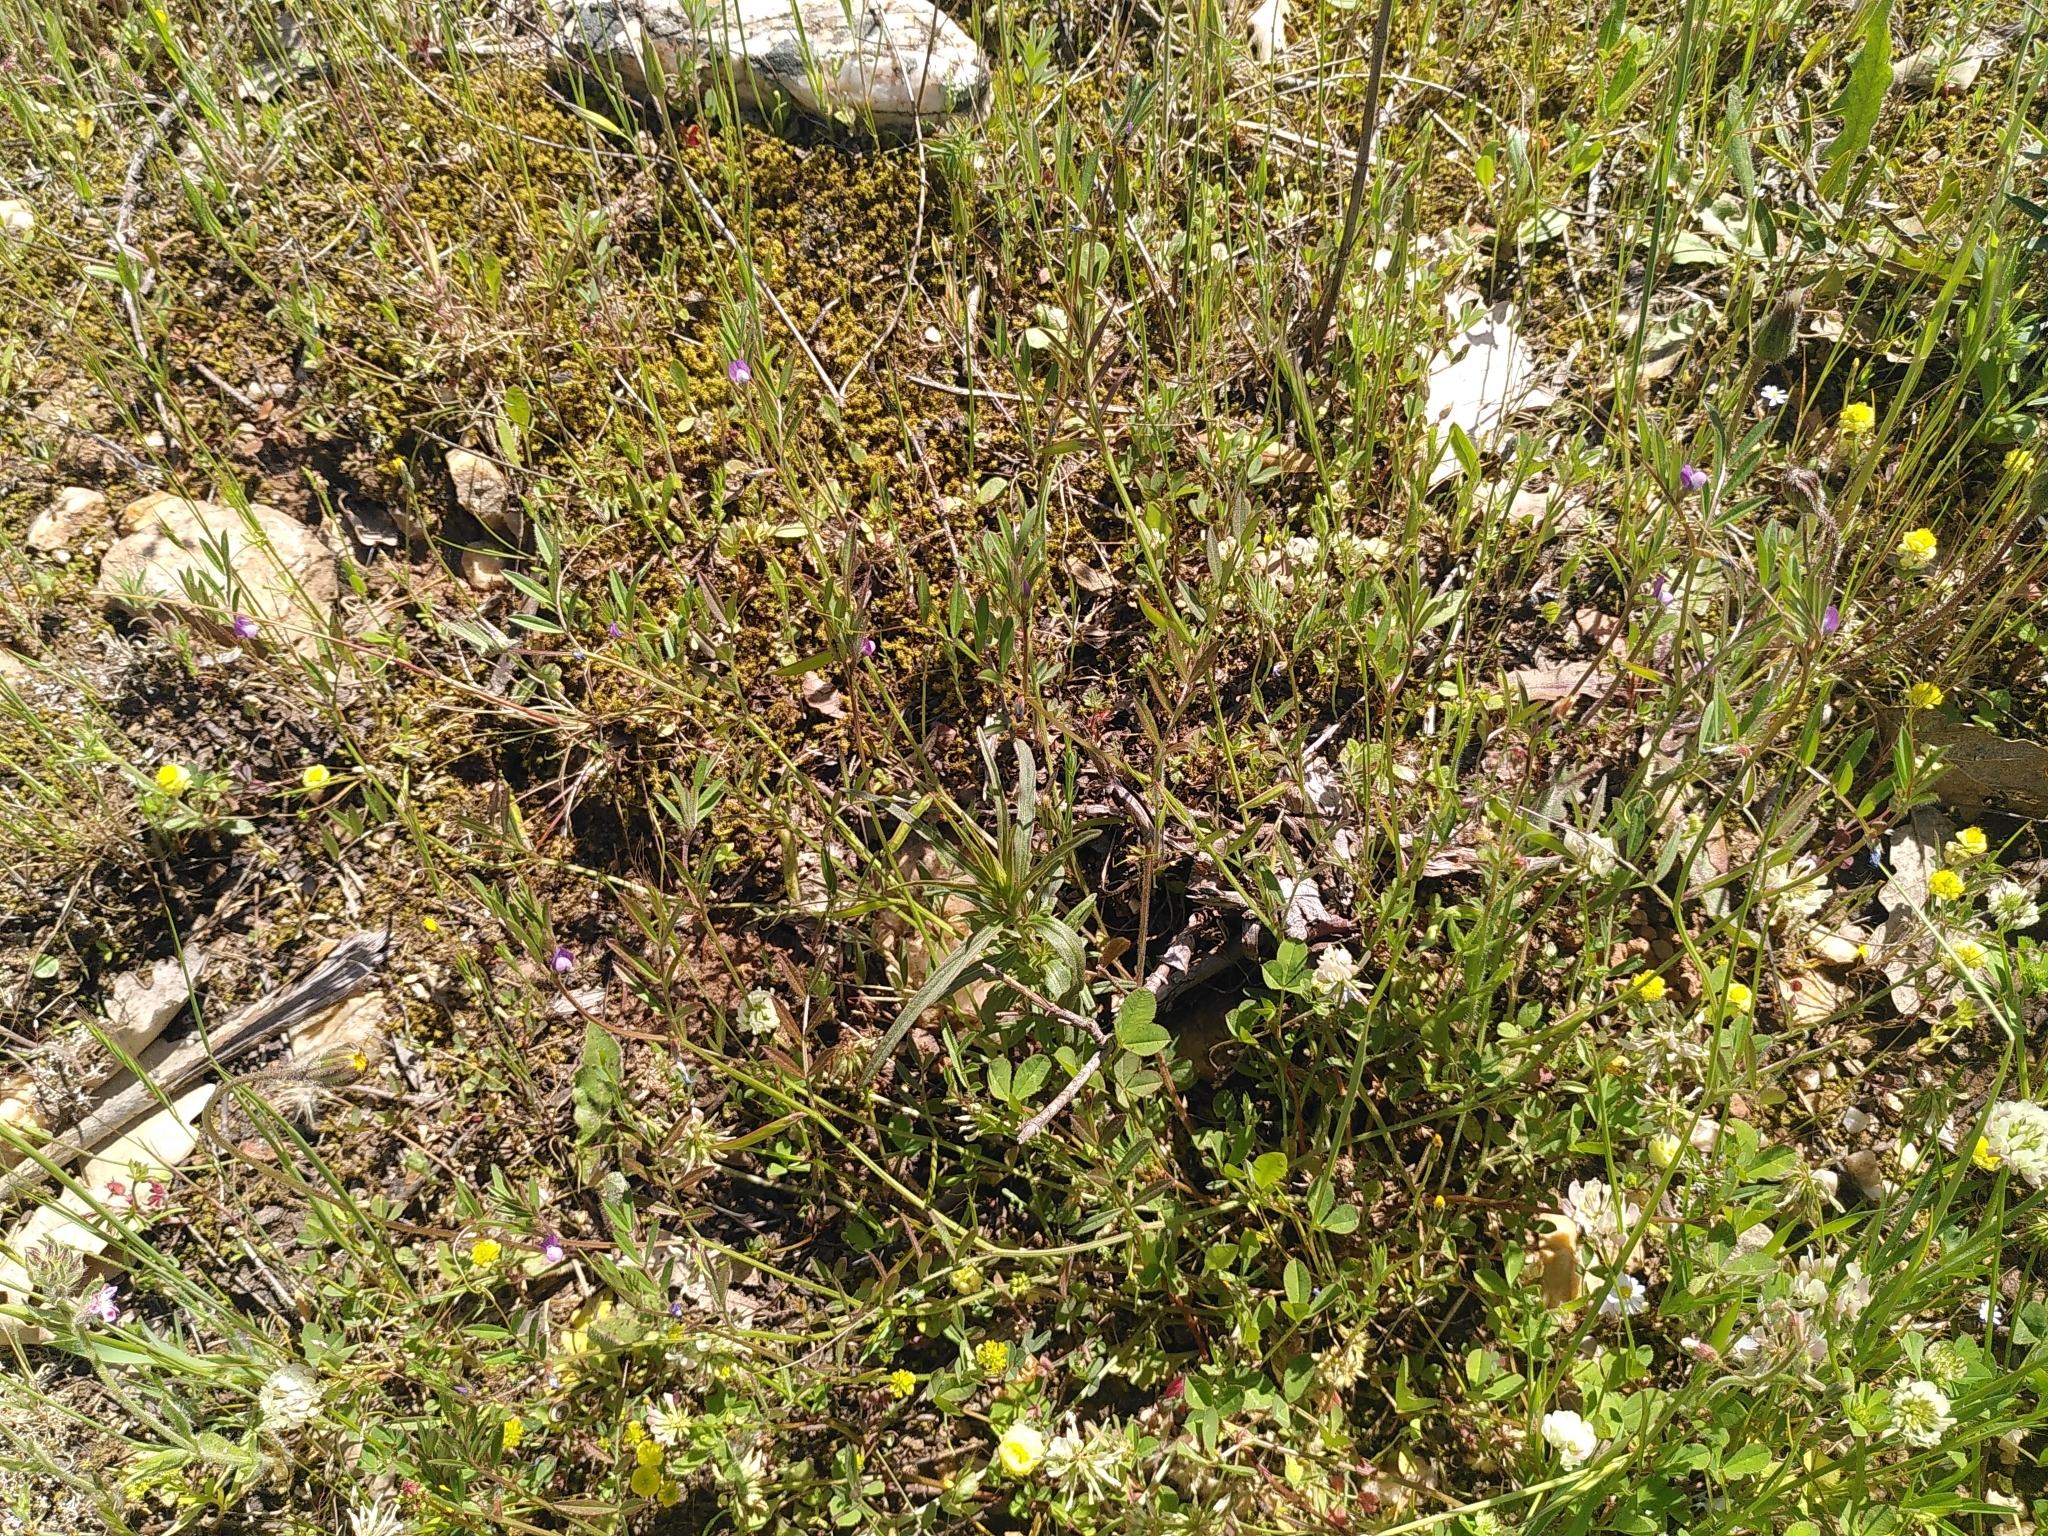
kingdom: Plantae
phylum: Tracheophyta
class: Magnoliopsida
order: Fabales
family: Fabaceae
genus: Vicia
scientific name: Vicia lathyroides
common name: Spring vetch
